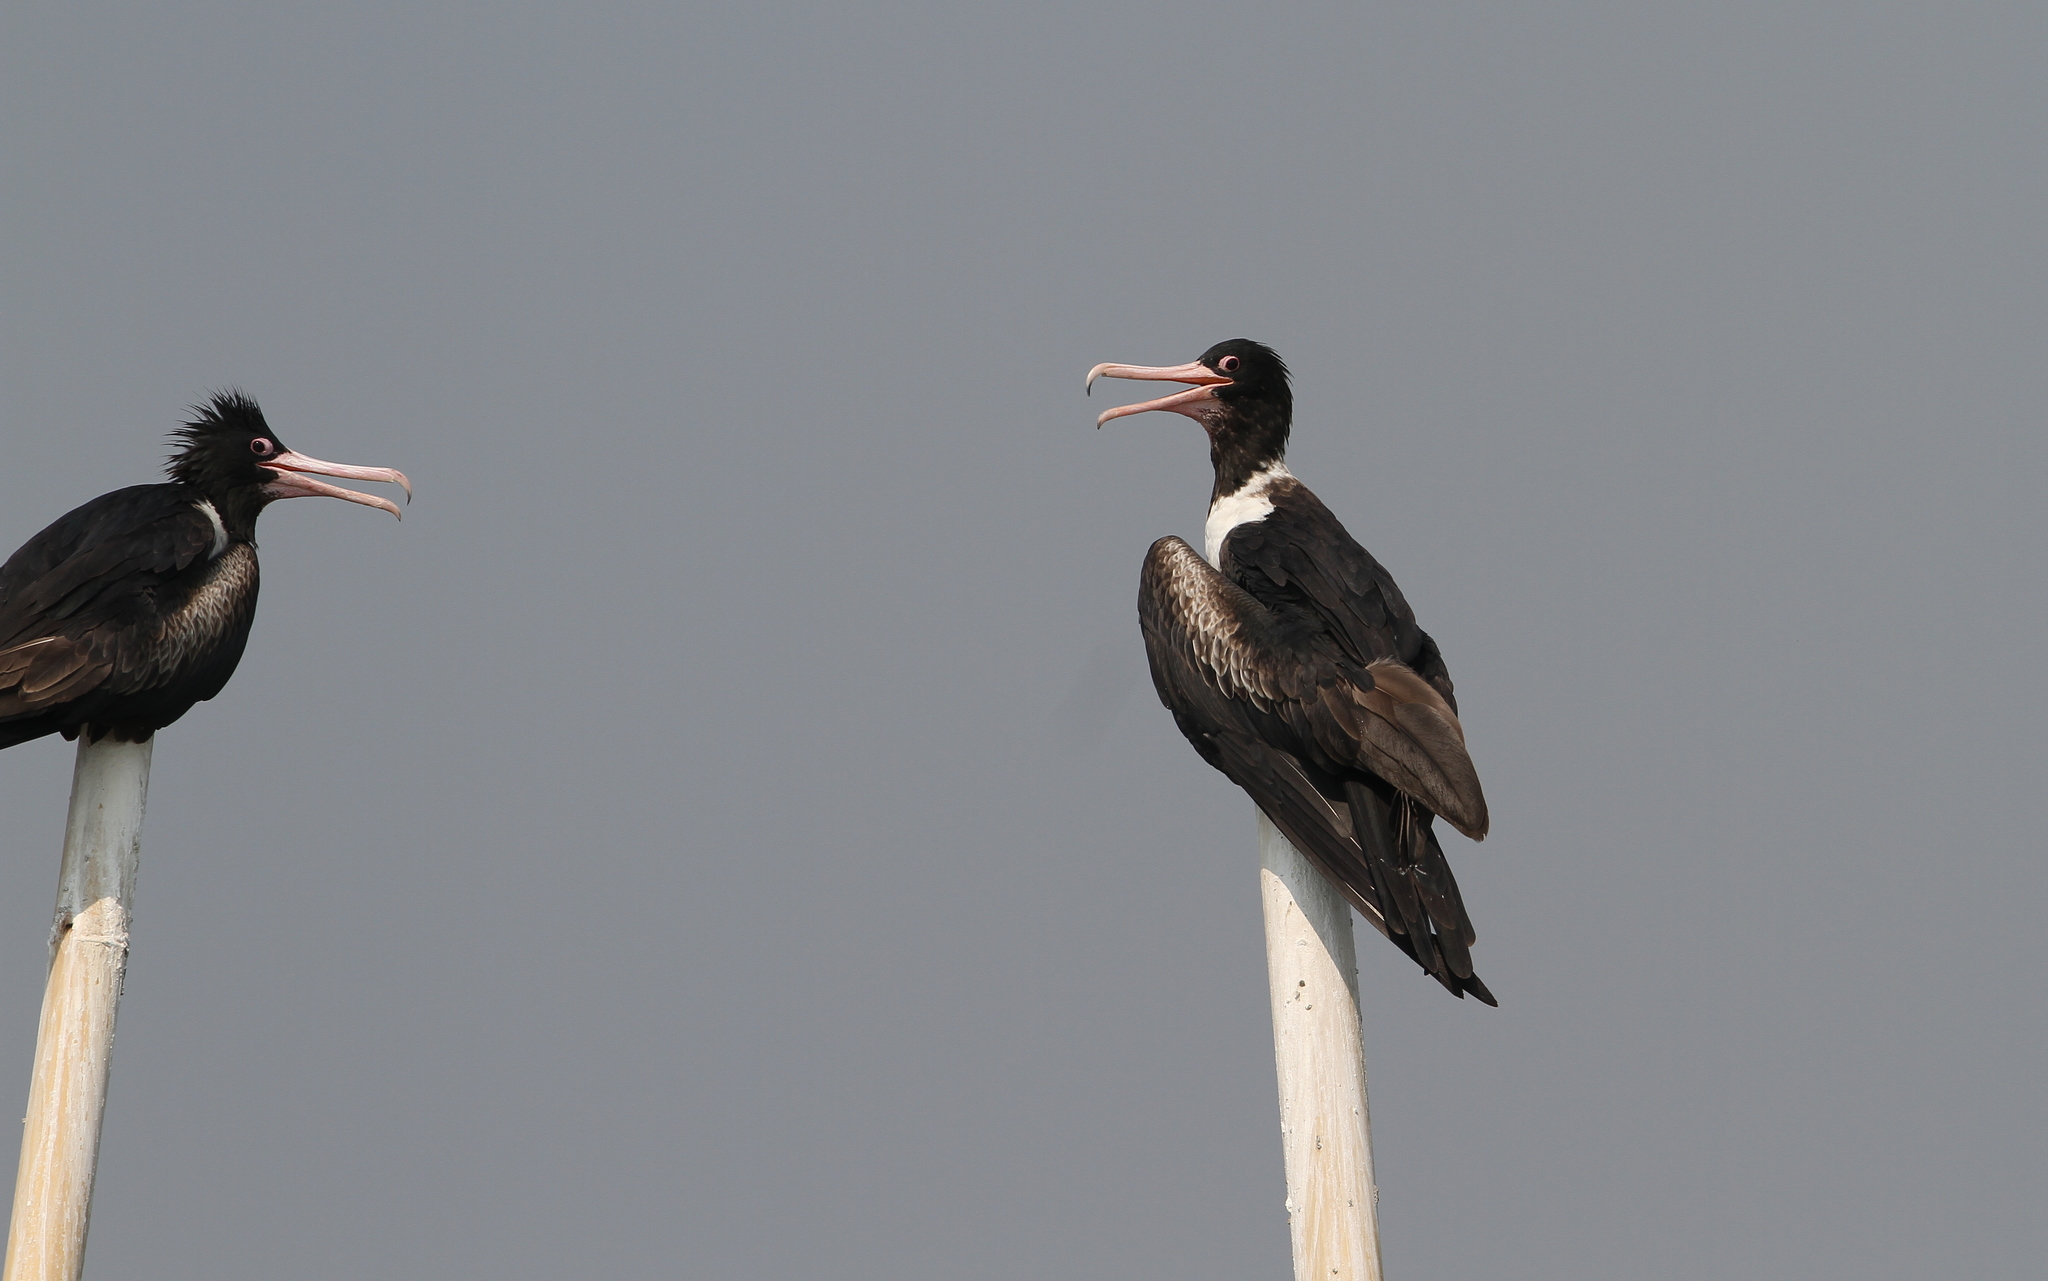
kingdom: Animalia
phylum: Chordata
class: Aves
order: Suliformes
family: Fregatidae
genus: Fregata
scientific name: Fregata andrewsi
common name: Christmas frigatebird
